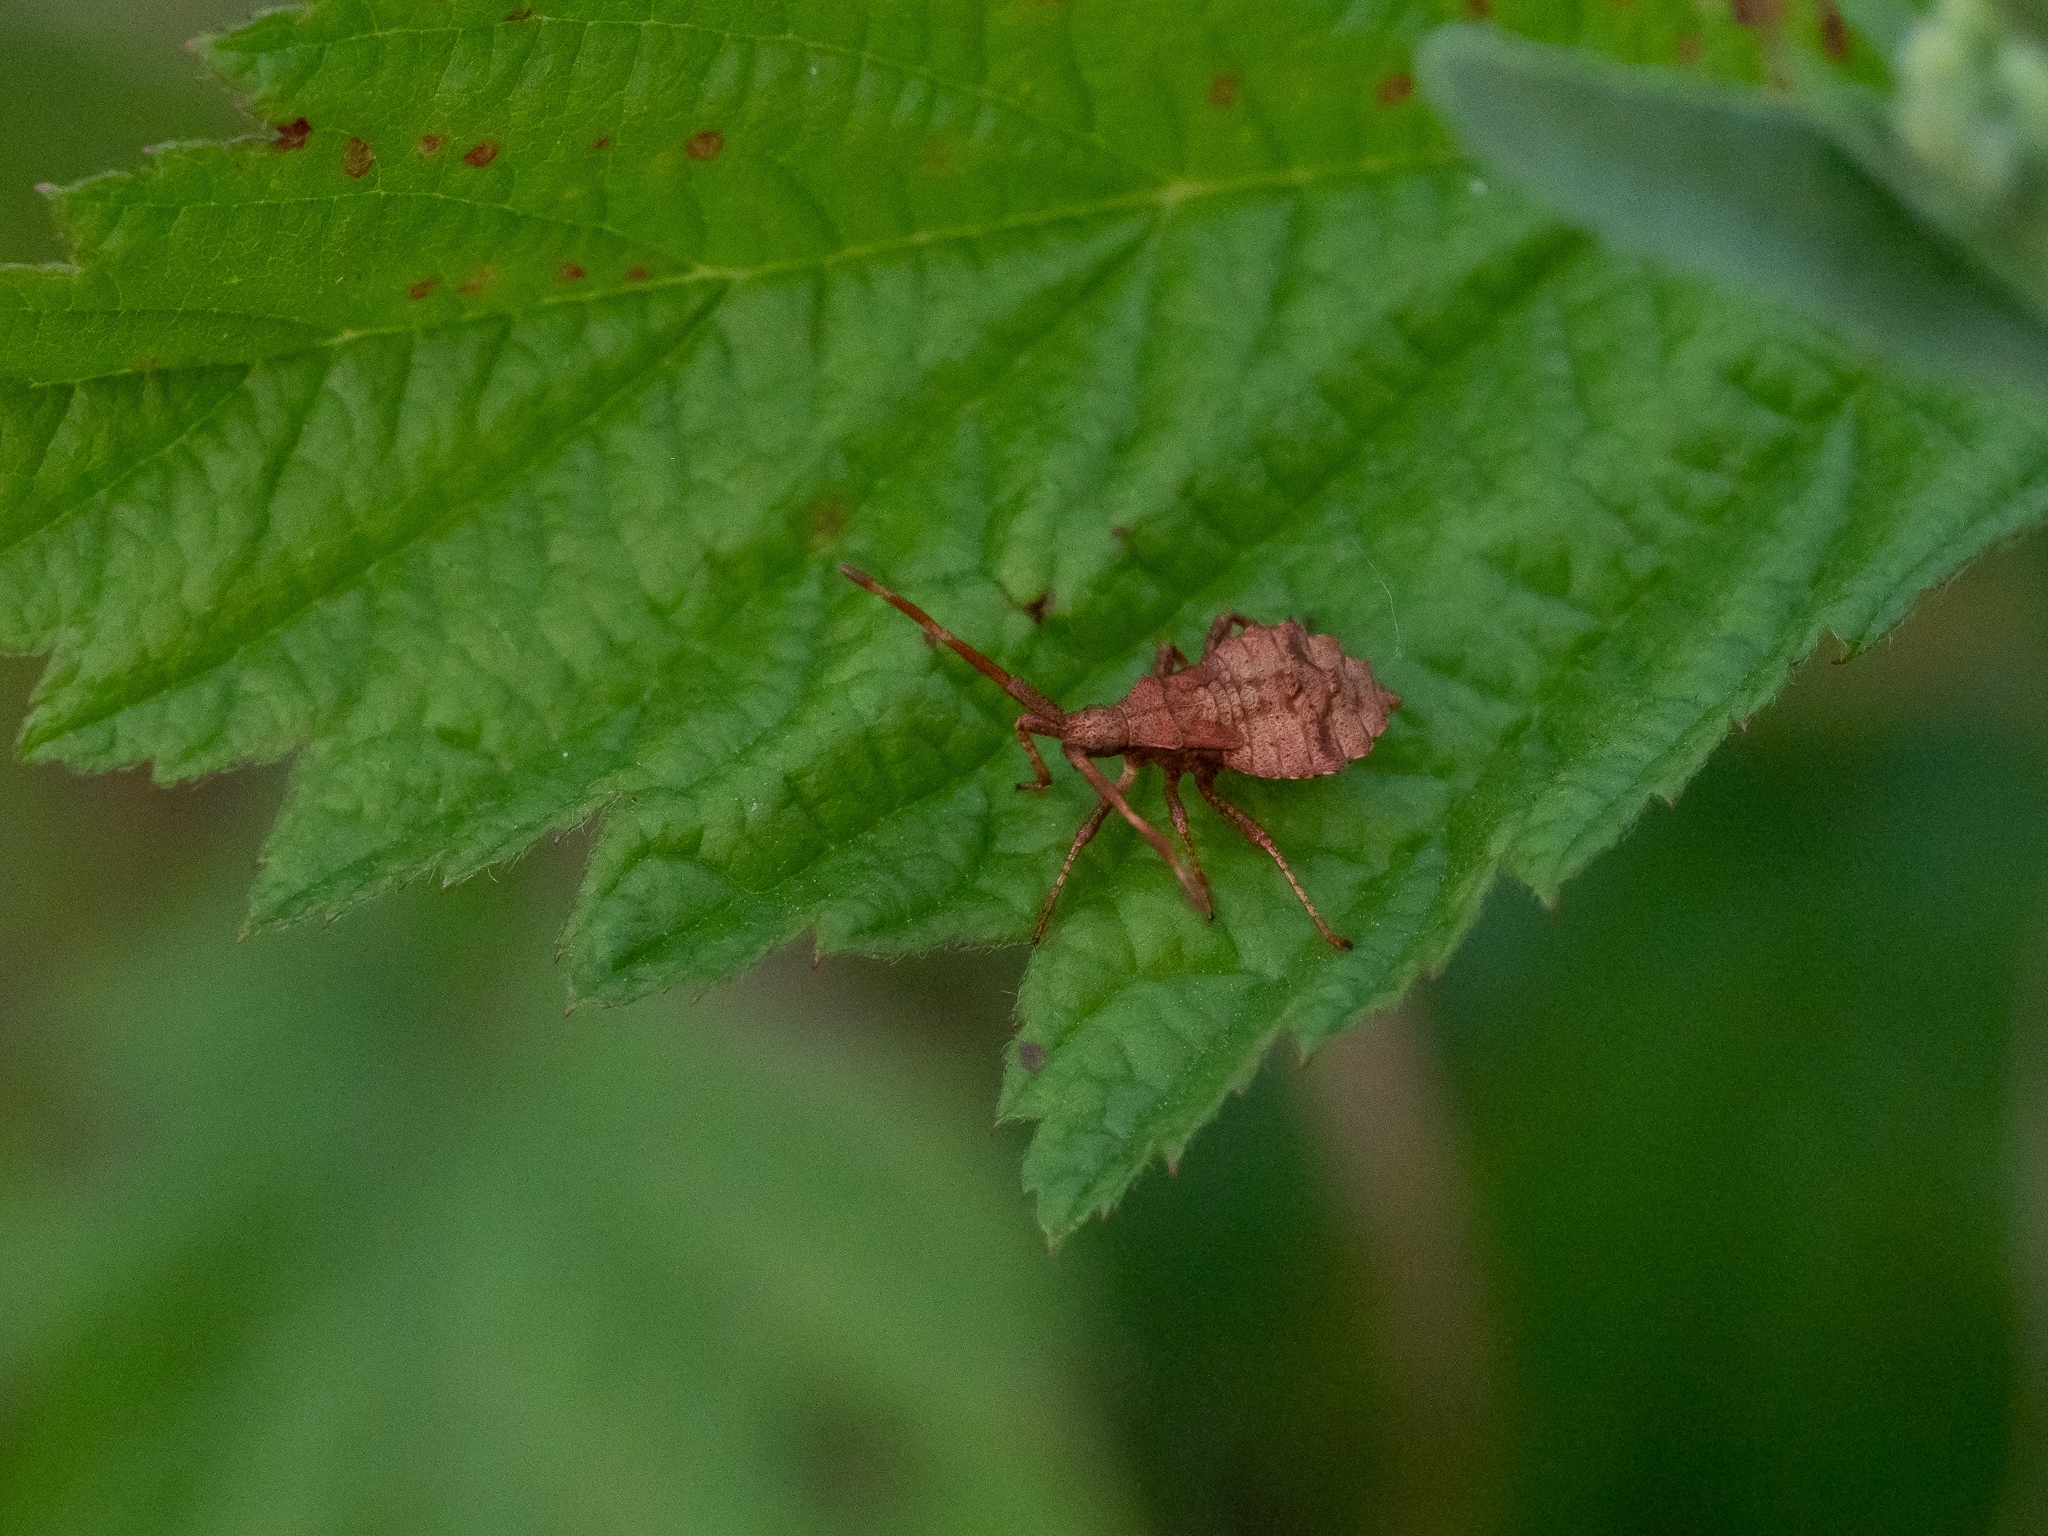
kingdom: Animalia
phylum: Arthropoda
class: Insecta
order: Hemiptera
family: Coreidae
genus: Coreus
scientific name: Coreus marginatus
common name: Dock bug
